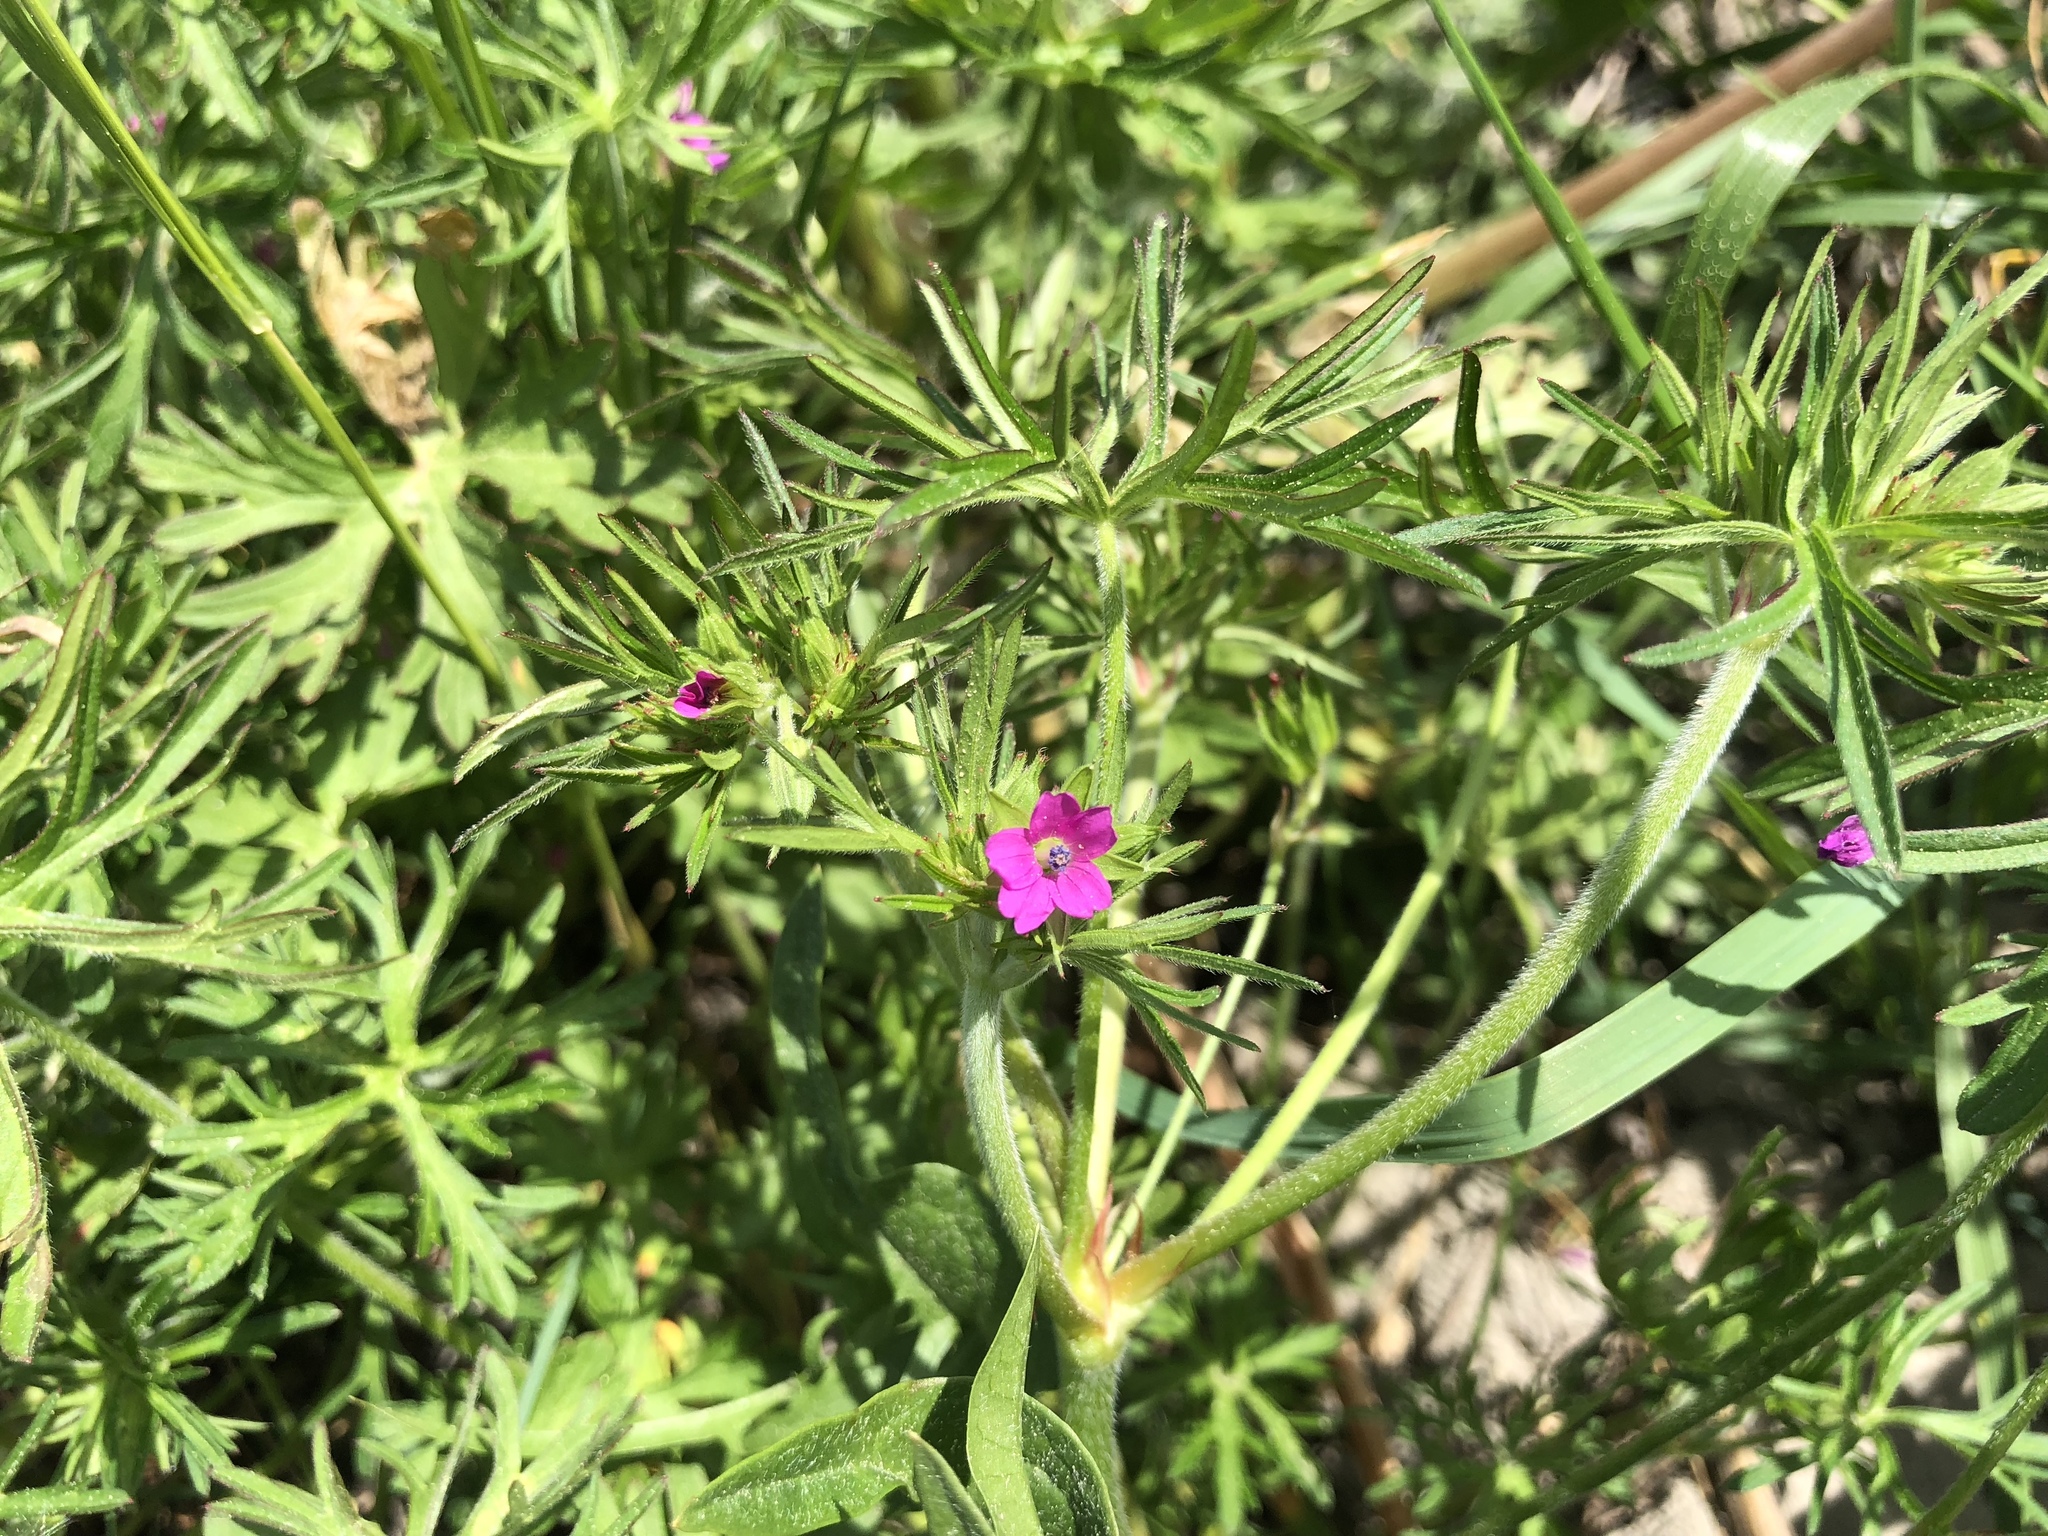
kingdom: Plantae
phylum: Tracheophyta
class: Magnoliopsida
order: Geraniales
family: Geraniaceae
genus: Geranium
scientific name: Geranium dissectum
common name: Cut-leaved crane's-bill
